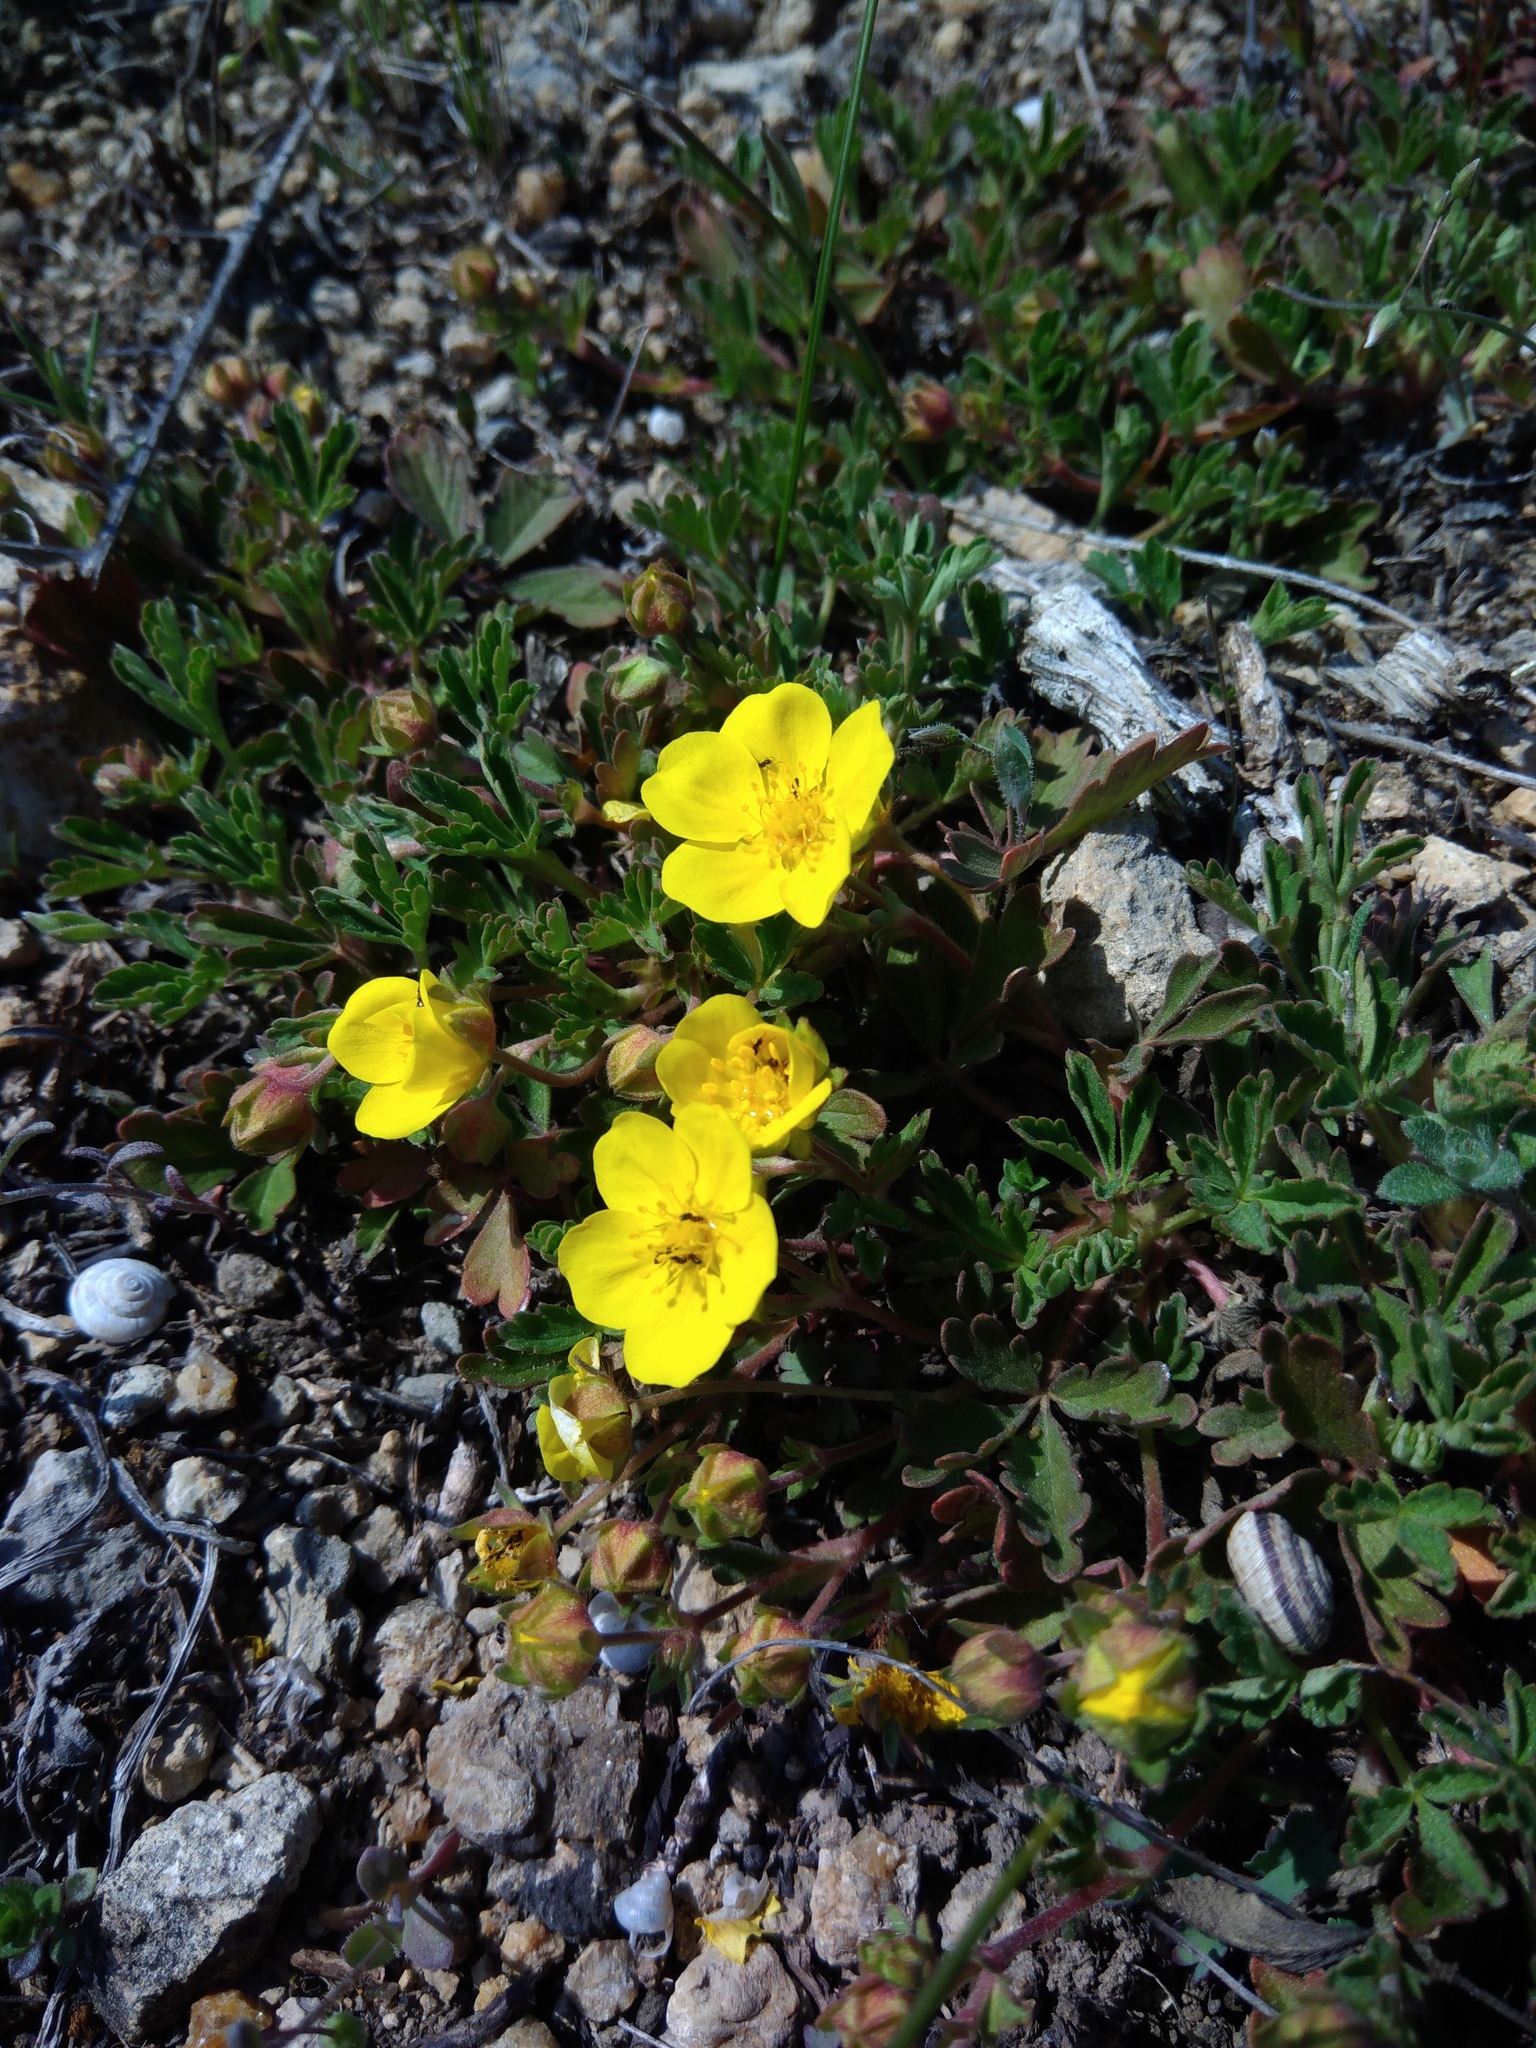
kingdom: Plantae
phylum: Tracheophyta
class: Magnoliopsida
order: Rosales
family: Rosaceae
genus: Potentilla
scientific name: Potentilla incana
